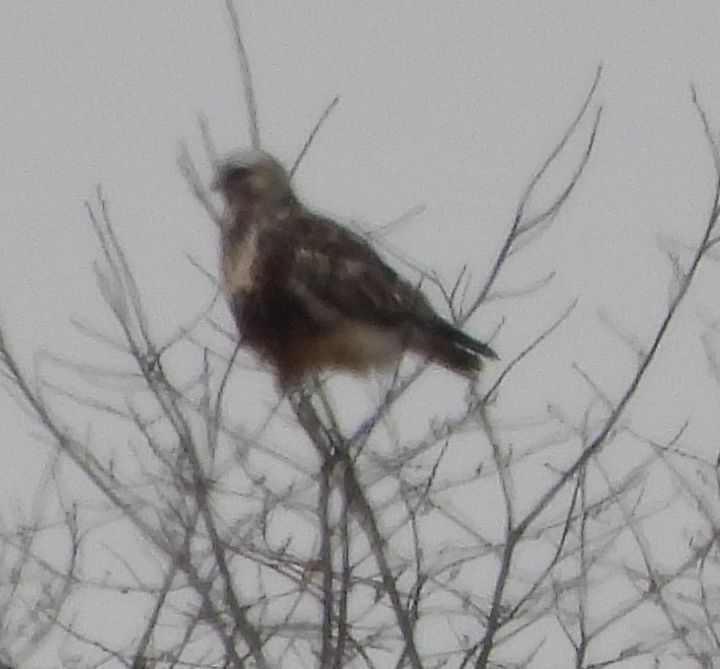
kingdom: Animalia
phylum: Chordata
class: Aves
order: Accipitriformes
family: Accipitridae
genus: Buteo
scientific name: Buteo lagopus
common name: Rough-legged buzzard
